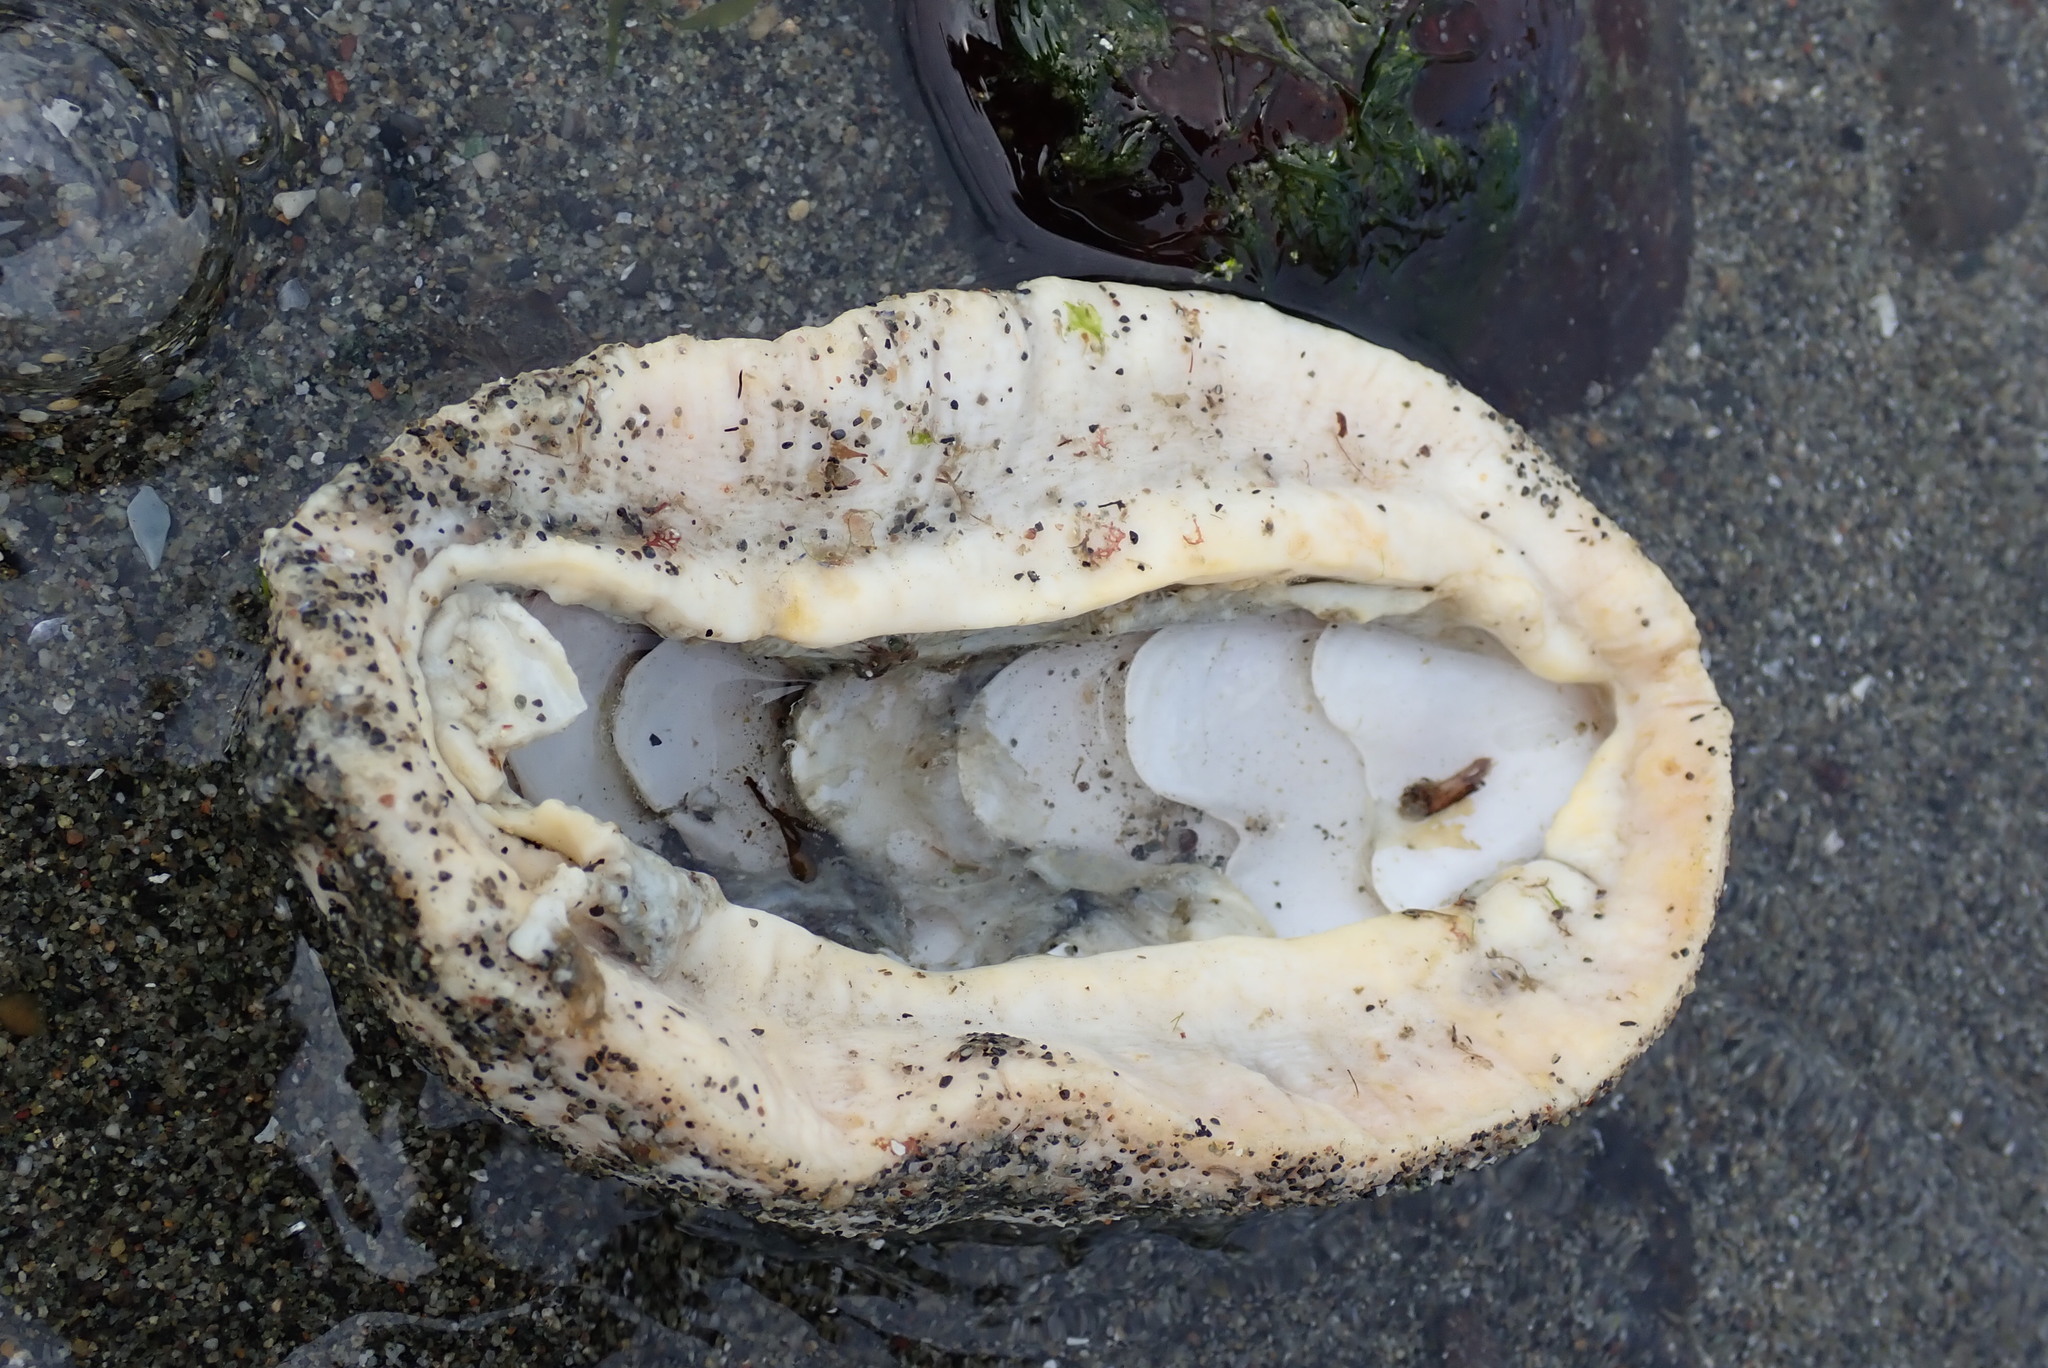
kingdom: Animalia
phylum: Mollusca
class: Polyplacophora
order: Chitonida
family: Acanthochitonidae
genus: Cryptochiton
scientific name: Cryptochiton stelleri
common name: Giant pacific chiton
